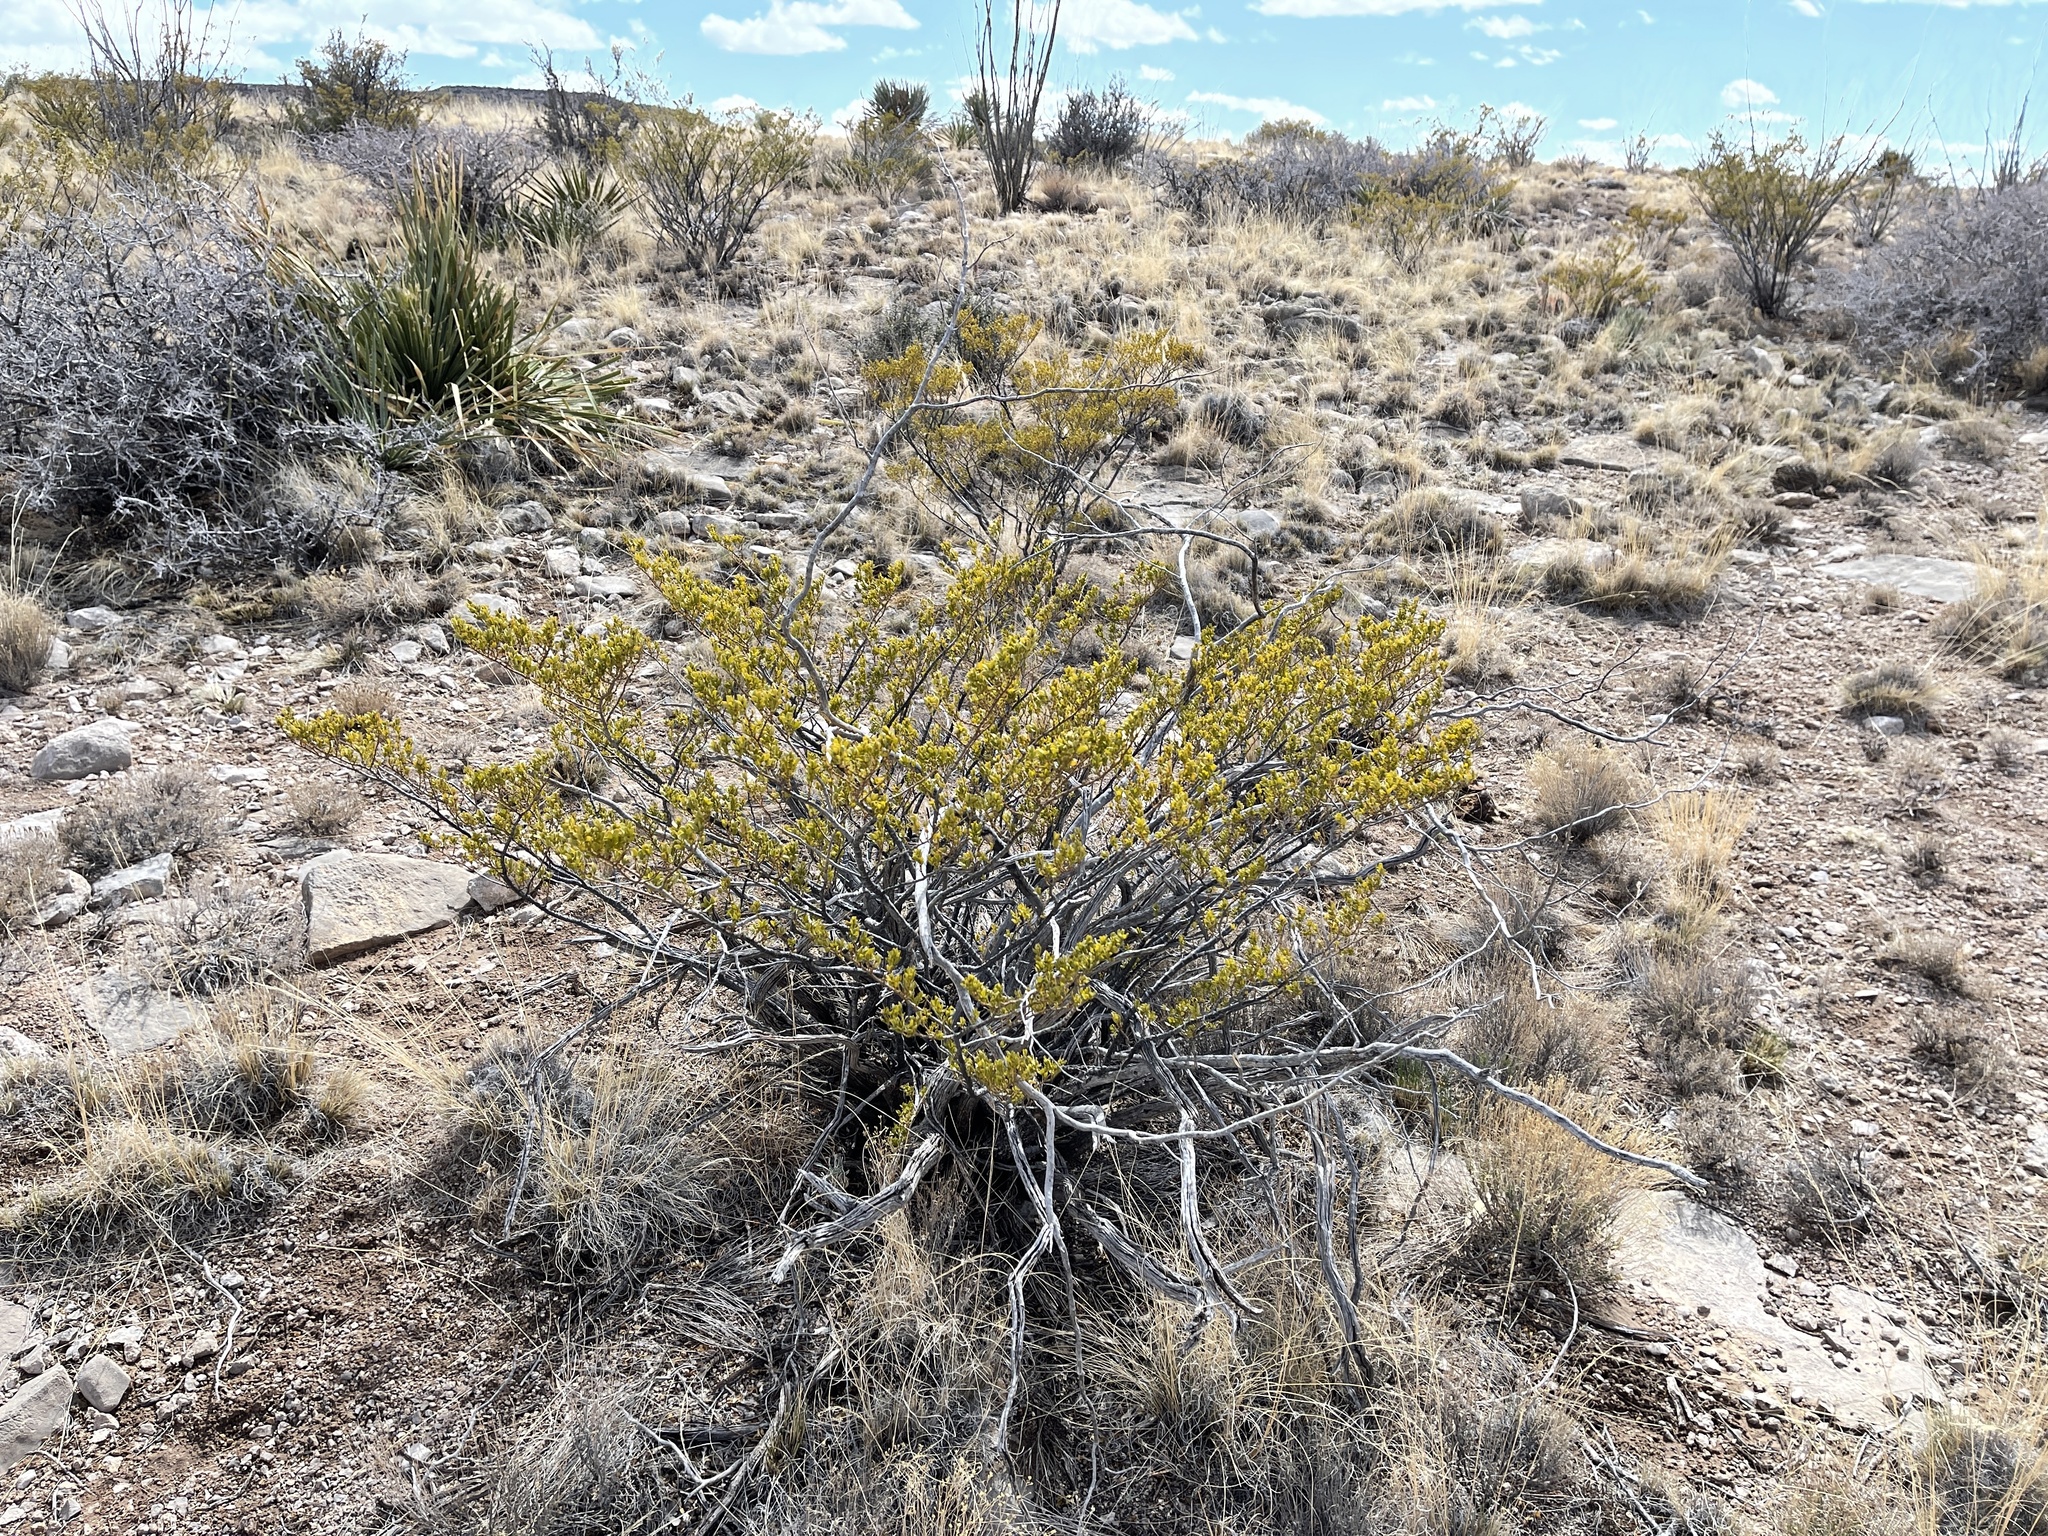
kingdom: Plantae
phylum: Tracheophyta
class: Magnoliopsida
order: Zygophyllales
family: Zygophyllaceae
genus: Larrea
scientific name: Larrea tridentata
